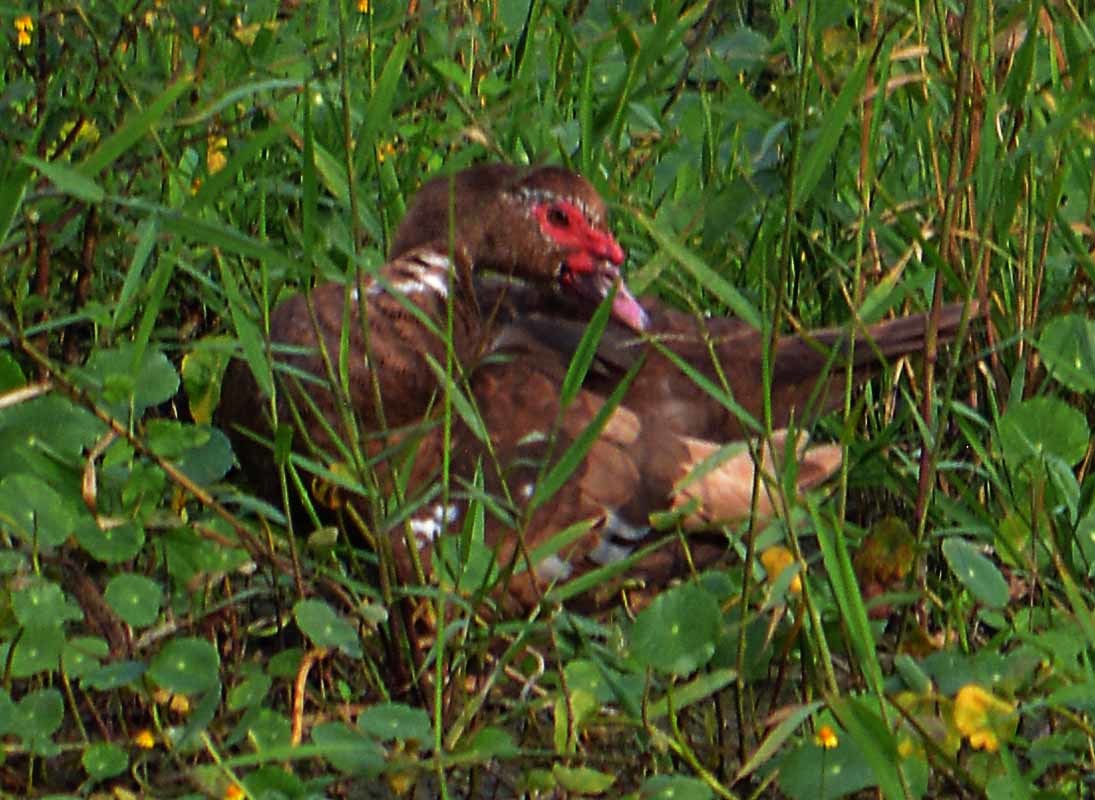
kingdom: Animalia
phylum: Chordata
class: Aves
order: Anseriformes
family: Anatidae
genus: Cairina
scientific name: Cairina moschata
